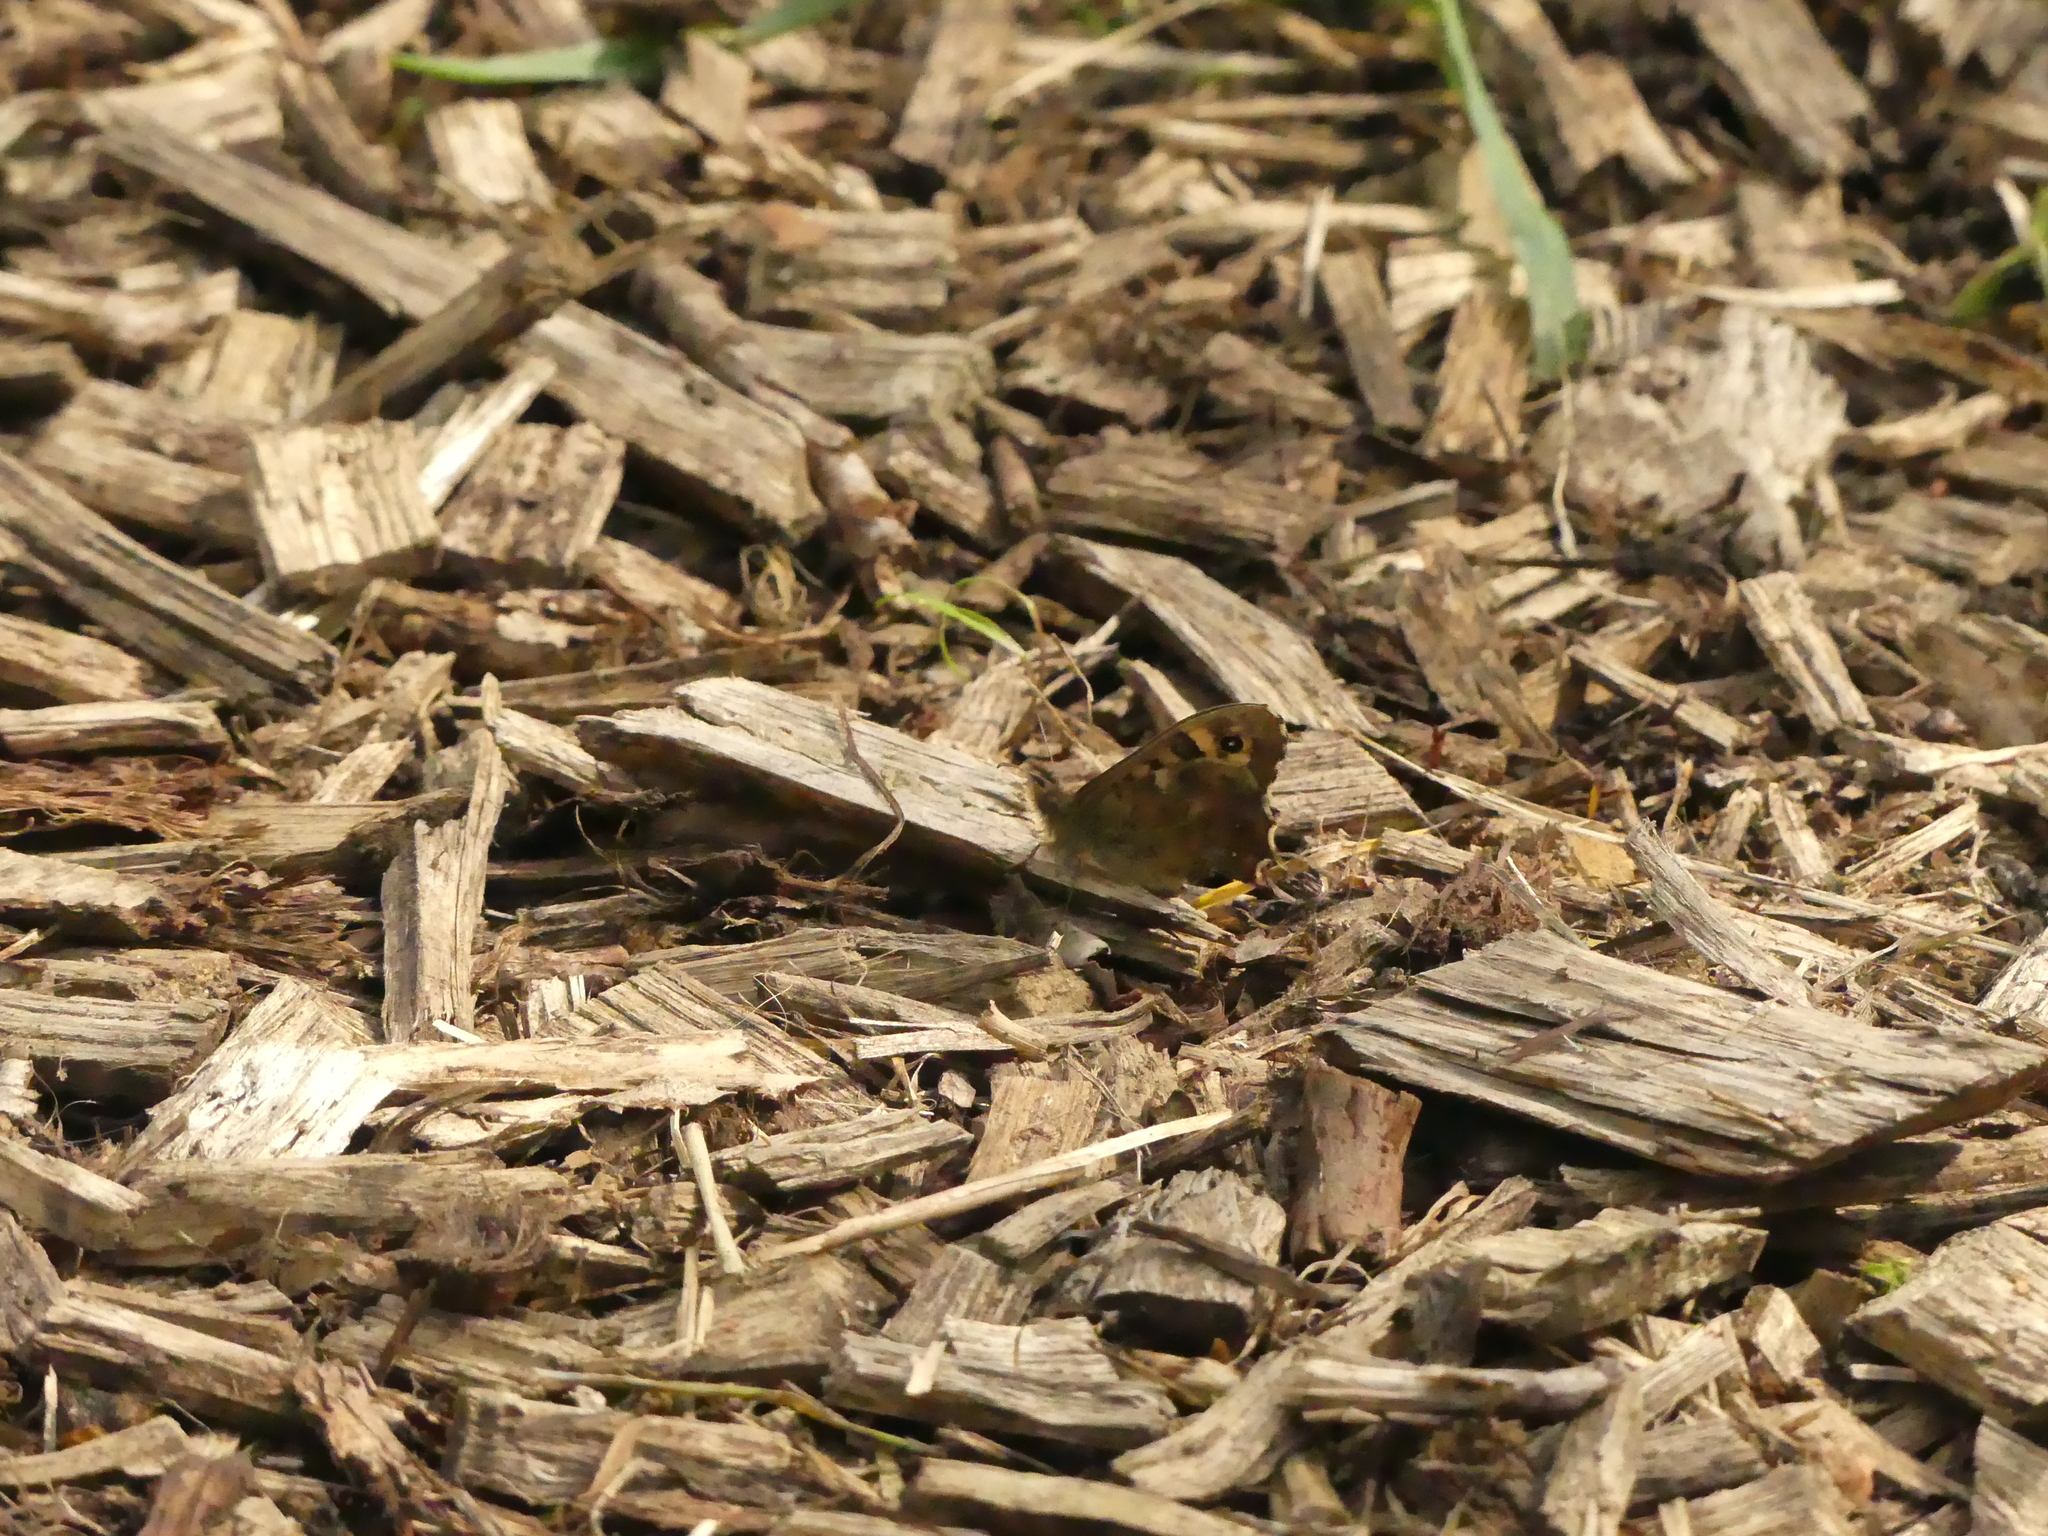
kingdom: Animalia
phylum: Arthropoda
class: Insecta
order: Lepidoptera
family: Nymphalidae
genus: Pararge
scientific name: Pararge aegeria
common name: Speckled wood
